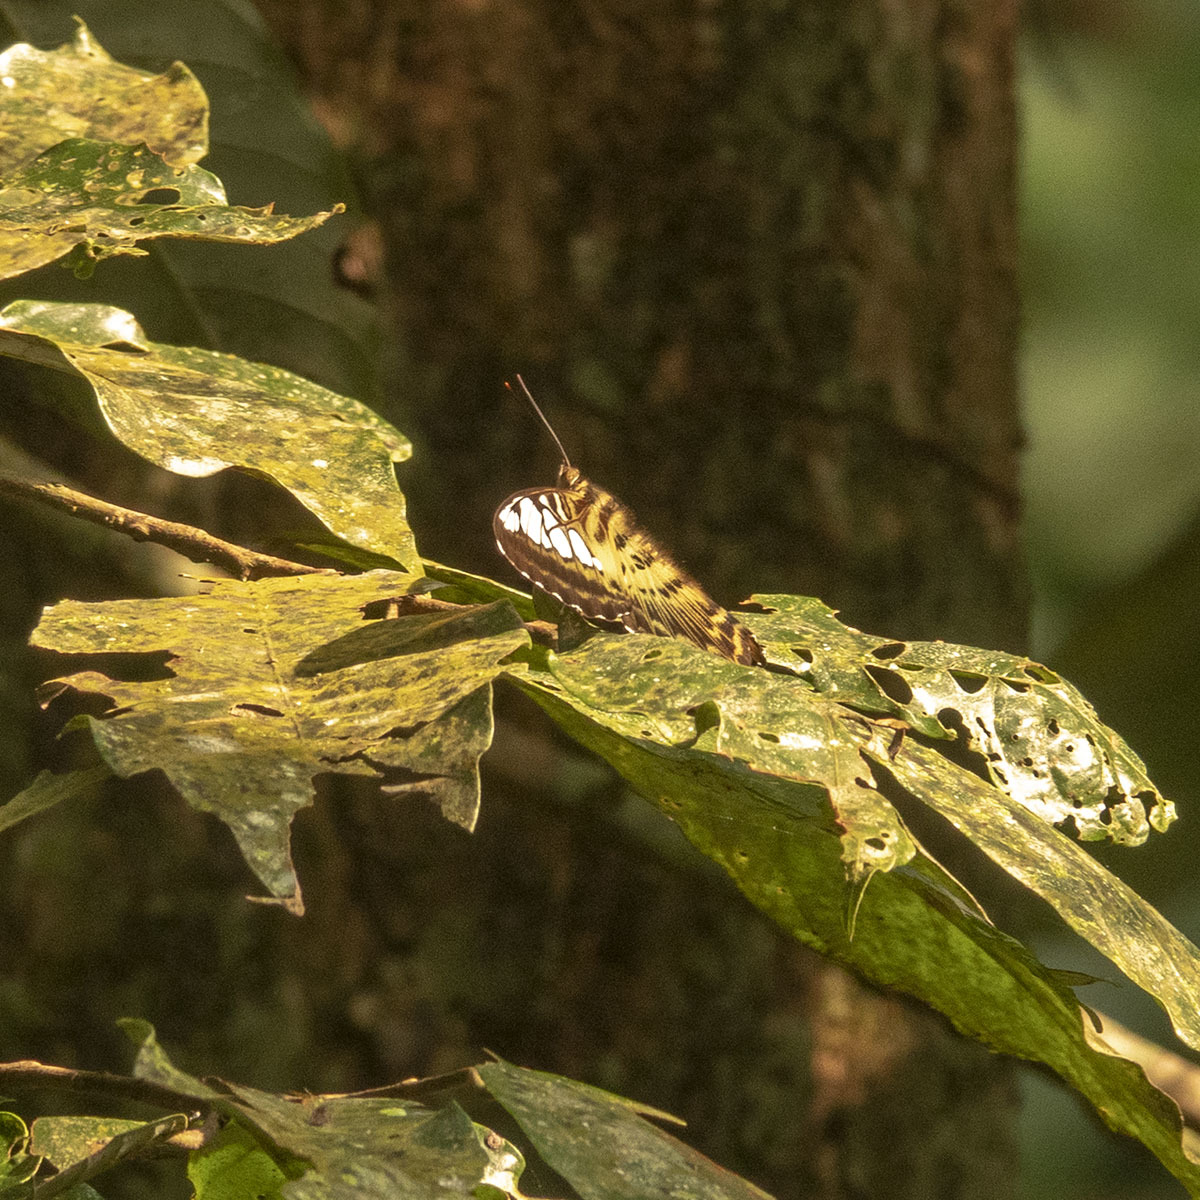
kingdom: Animalia
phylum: Arthropoda
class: Insecta
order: Lepidoptera
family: Nymphalidae
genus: Kallima
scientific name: Kallima sylvia
